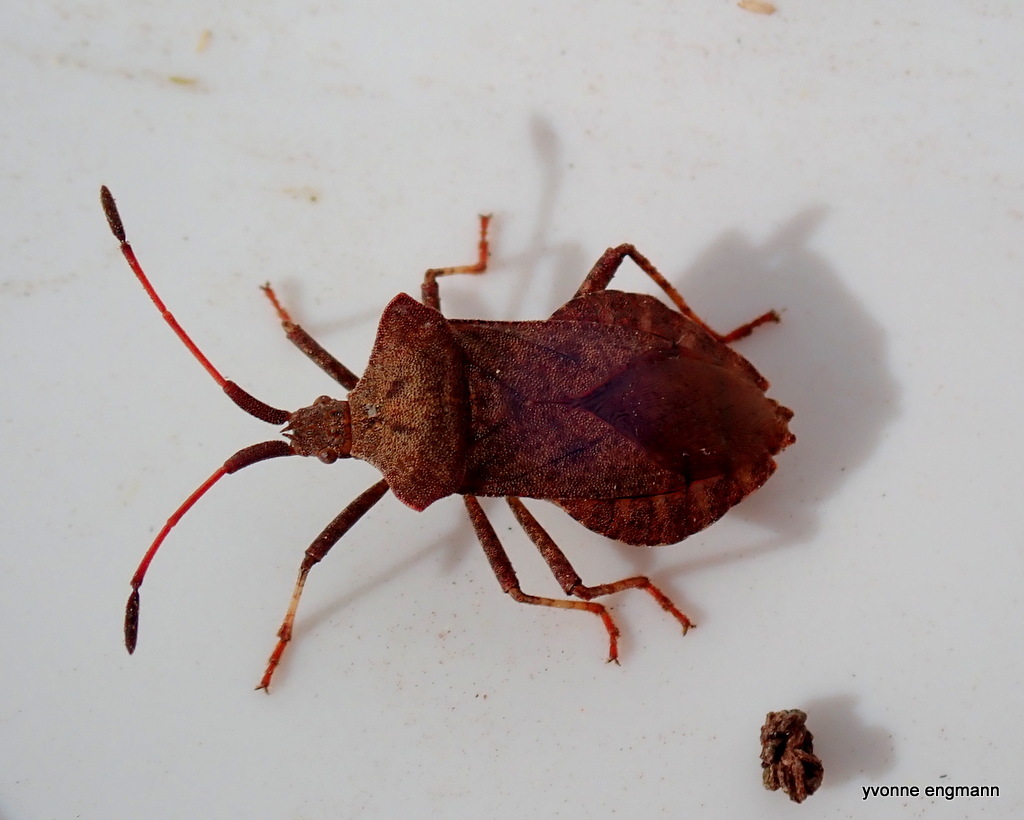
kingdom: Animalia
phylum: Arthropoda
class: Insecta
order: Hemiptera
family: Coreidae
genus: Coreus
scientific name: Coreus marginatus
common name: Dock bug
